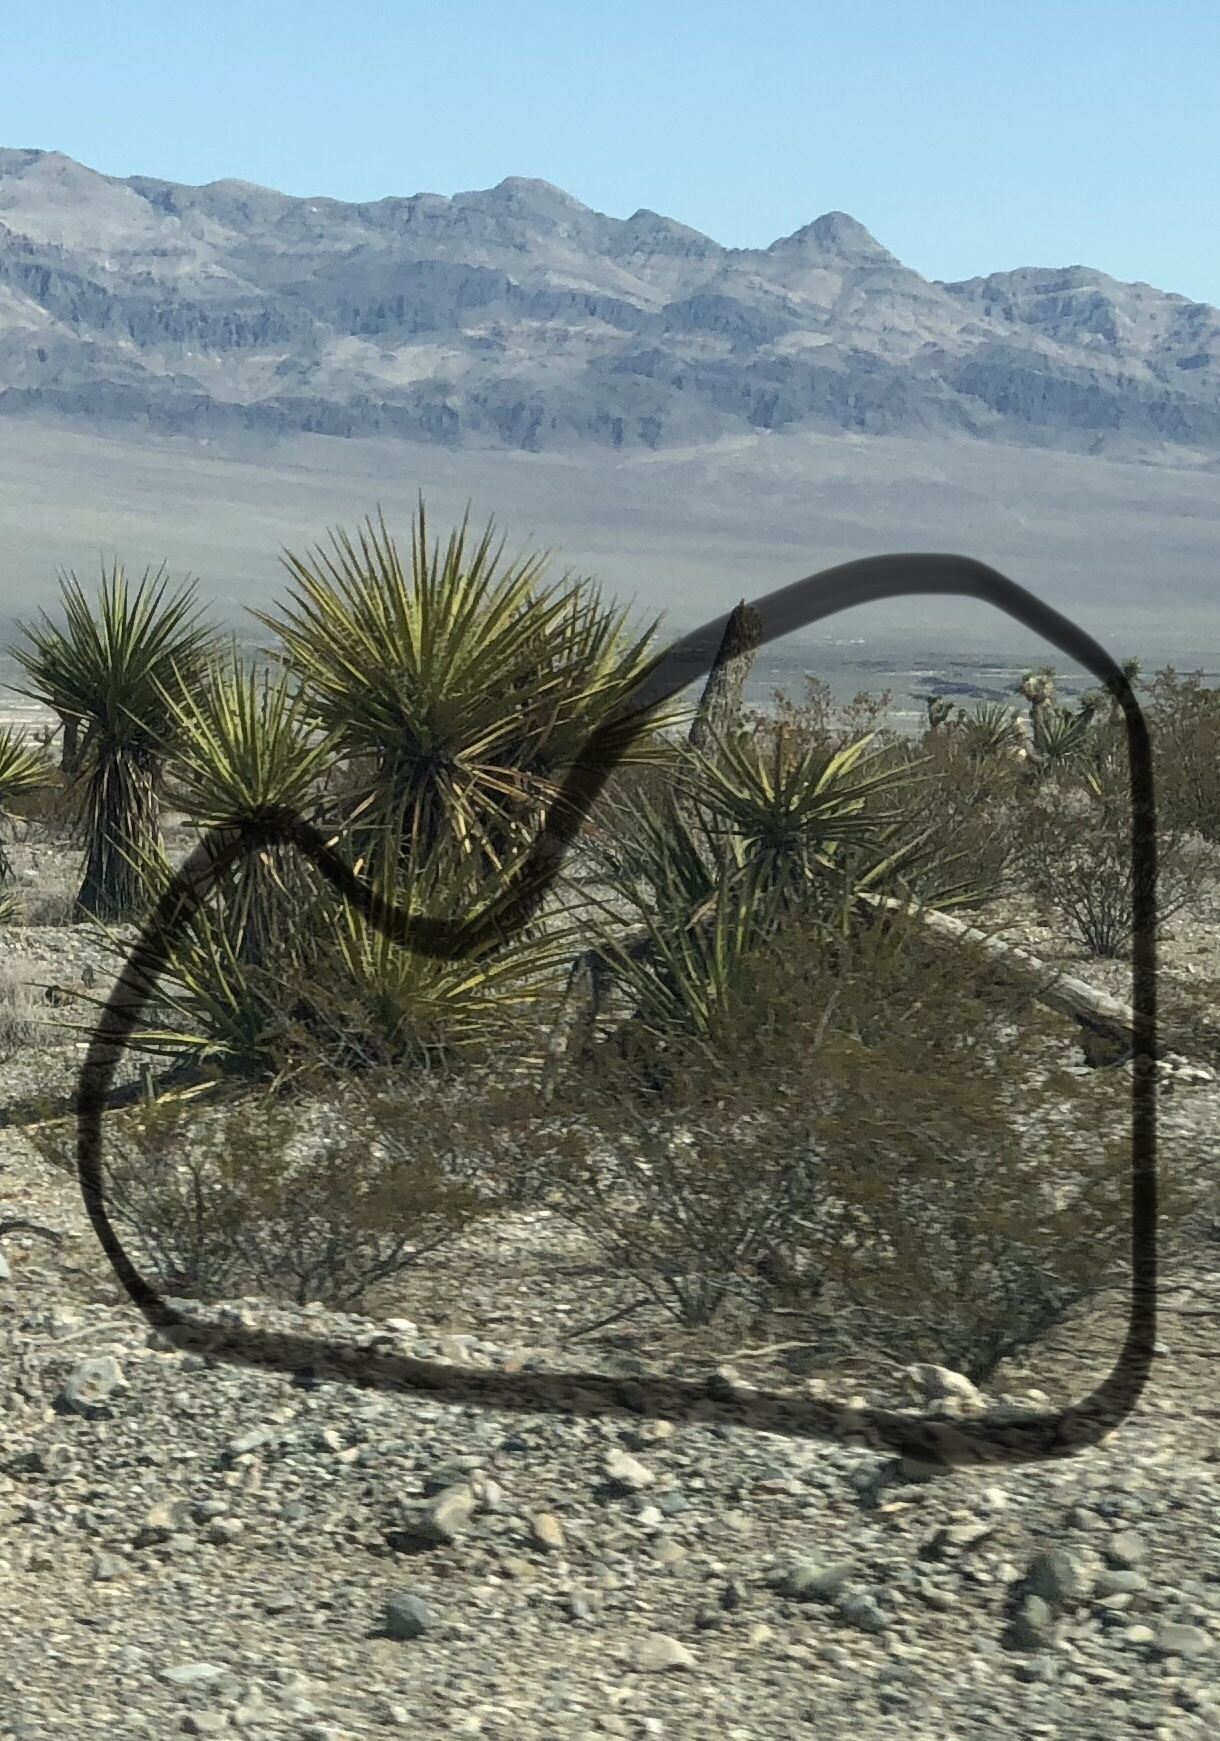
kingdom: Plantae
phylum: Tracheophyta
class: Magnoliopsida
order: Zygophyllales
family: Zygophyllaceae
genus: Larrea
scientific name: Larrea tridentata
